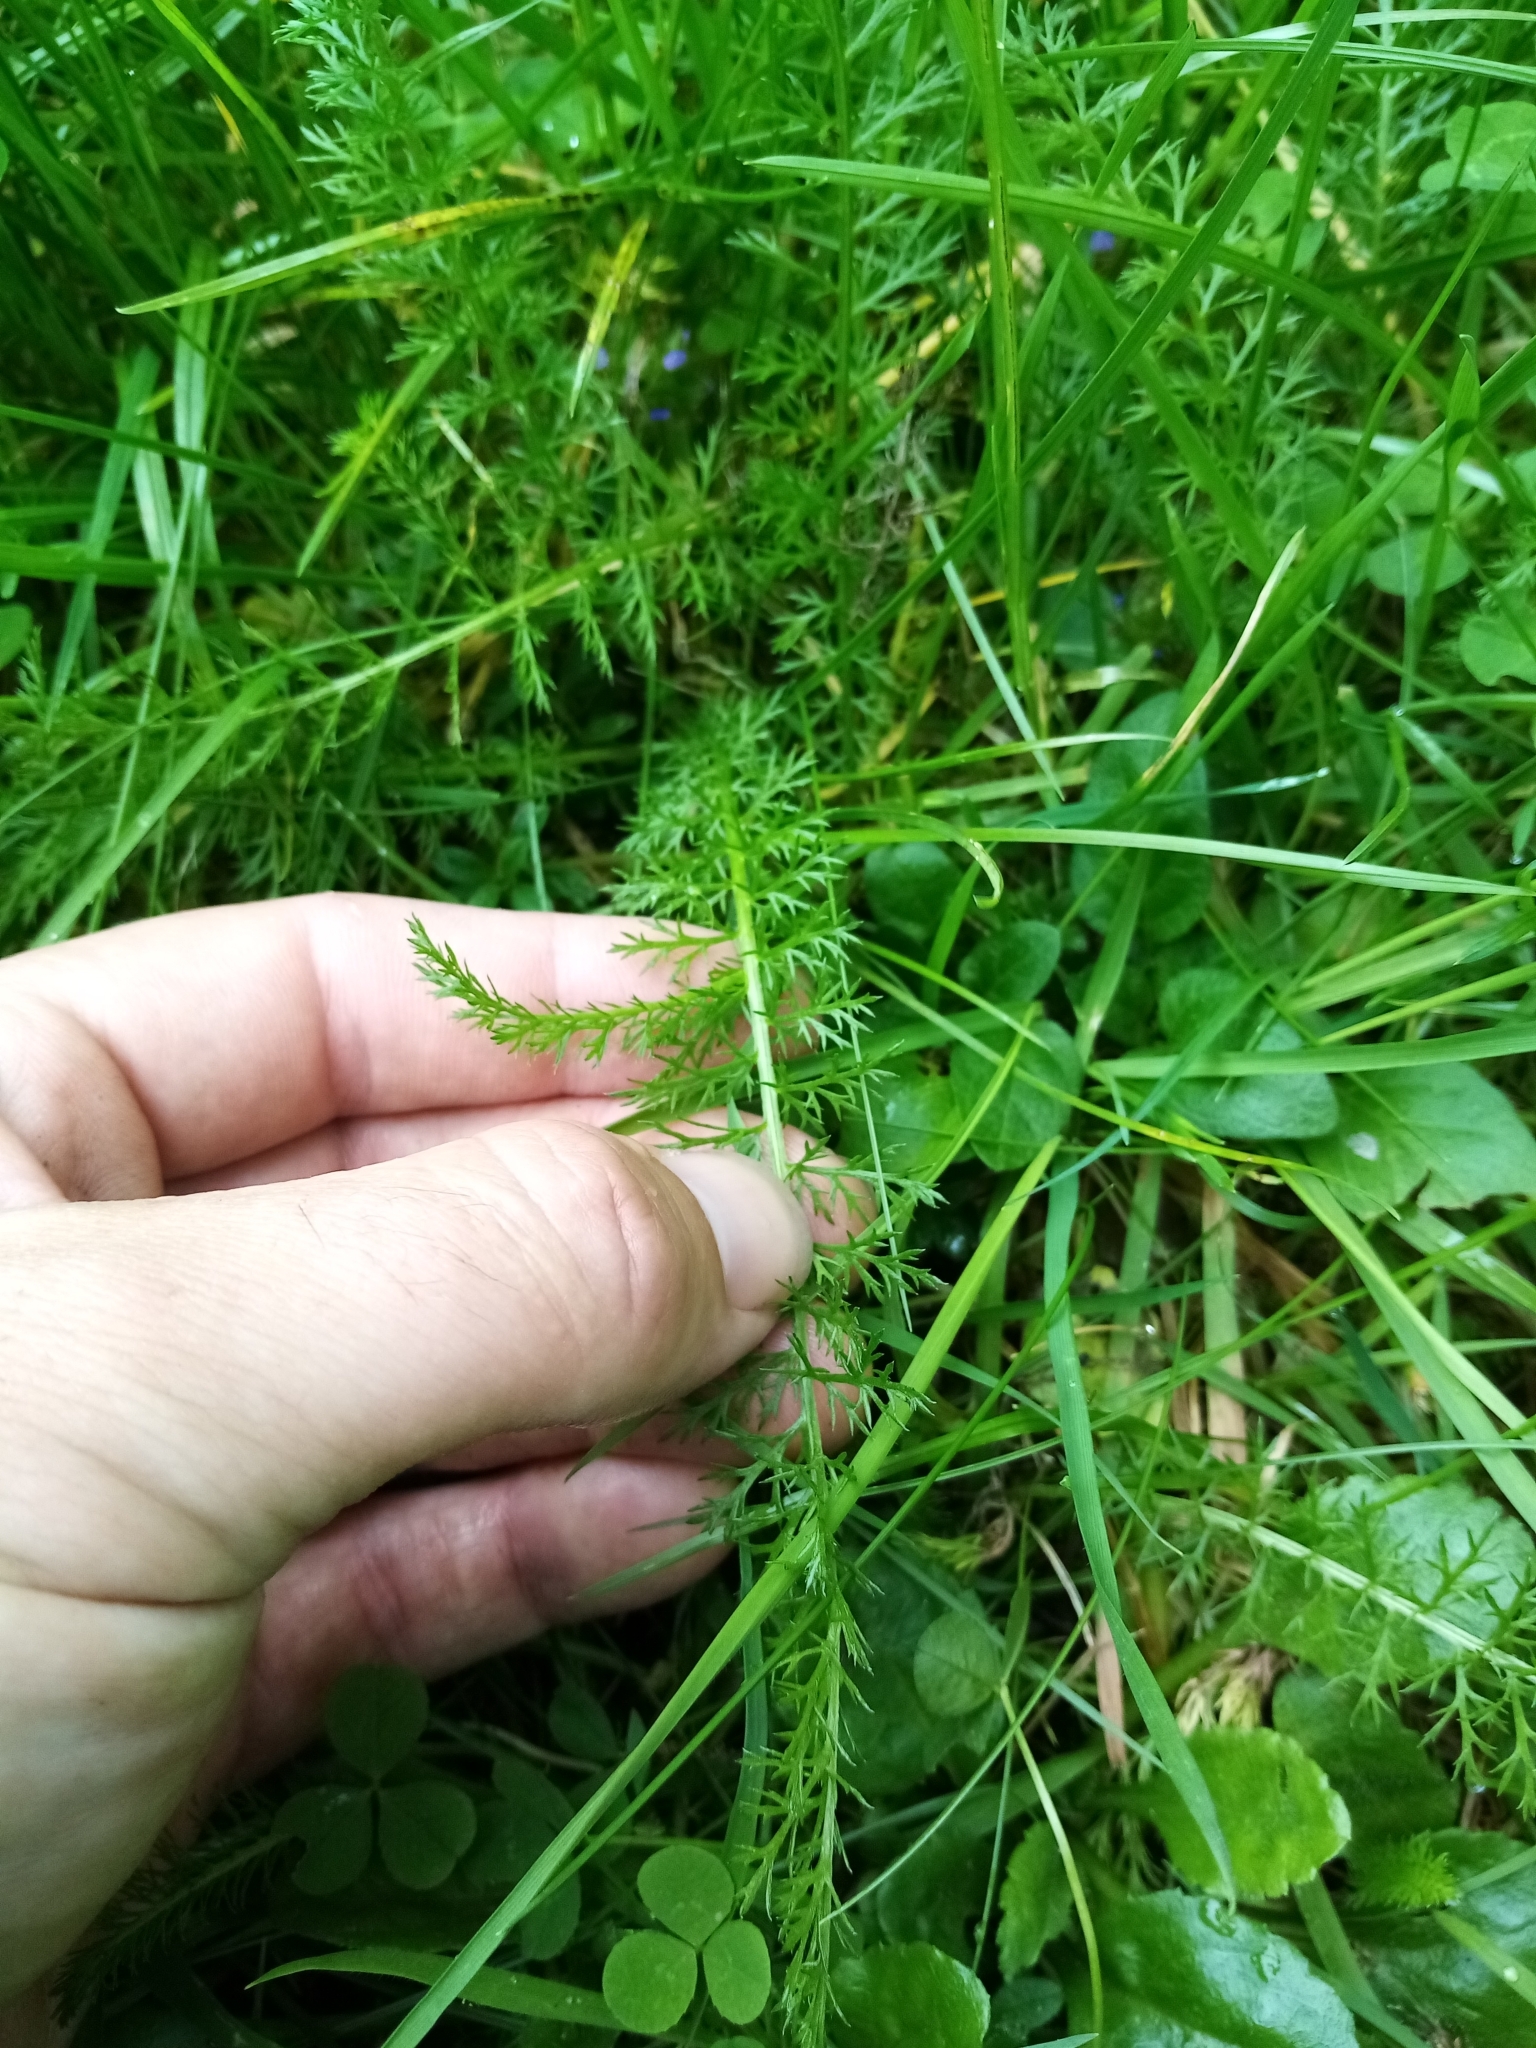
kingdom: Plantae
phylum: Tracheophyta
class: Magnoliopsida
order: Asterales
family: Asteraceae
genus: Achillea
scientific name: Achillea millefolium
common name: Yarrow
